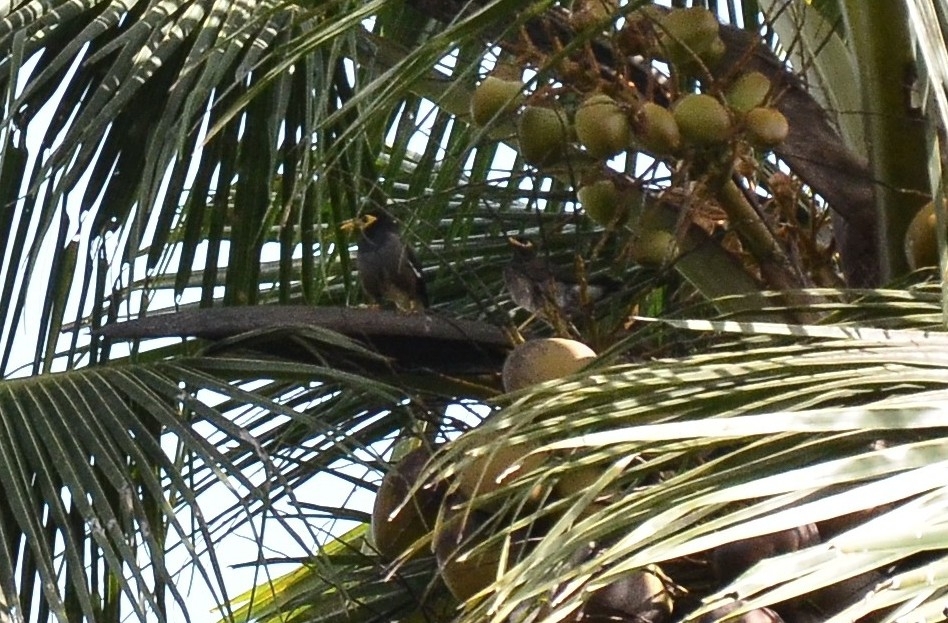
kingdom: Animalia
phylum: Chordata
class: Aves
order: Passeriformes
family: Sturnidae
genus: Acridotheres
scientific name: Acridotheres tristis
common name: Common myna
